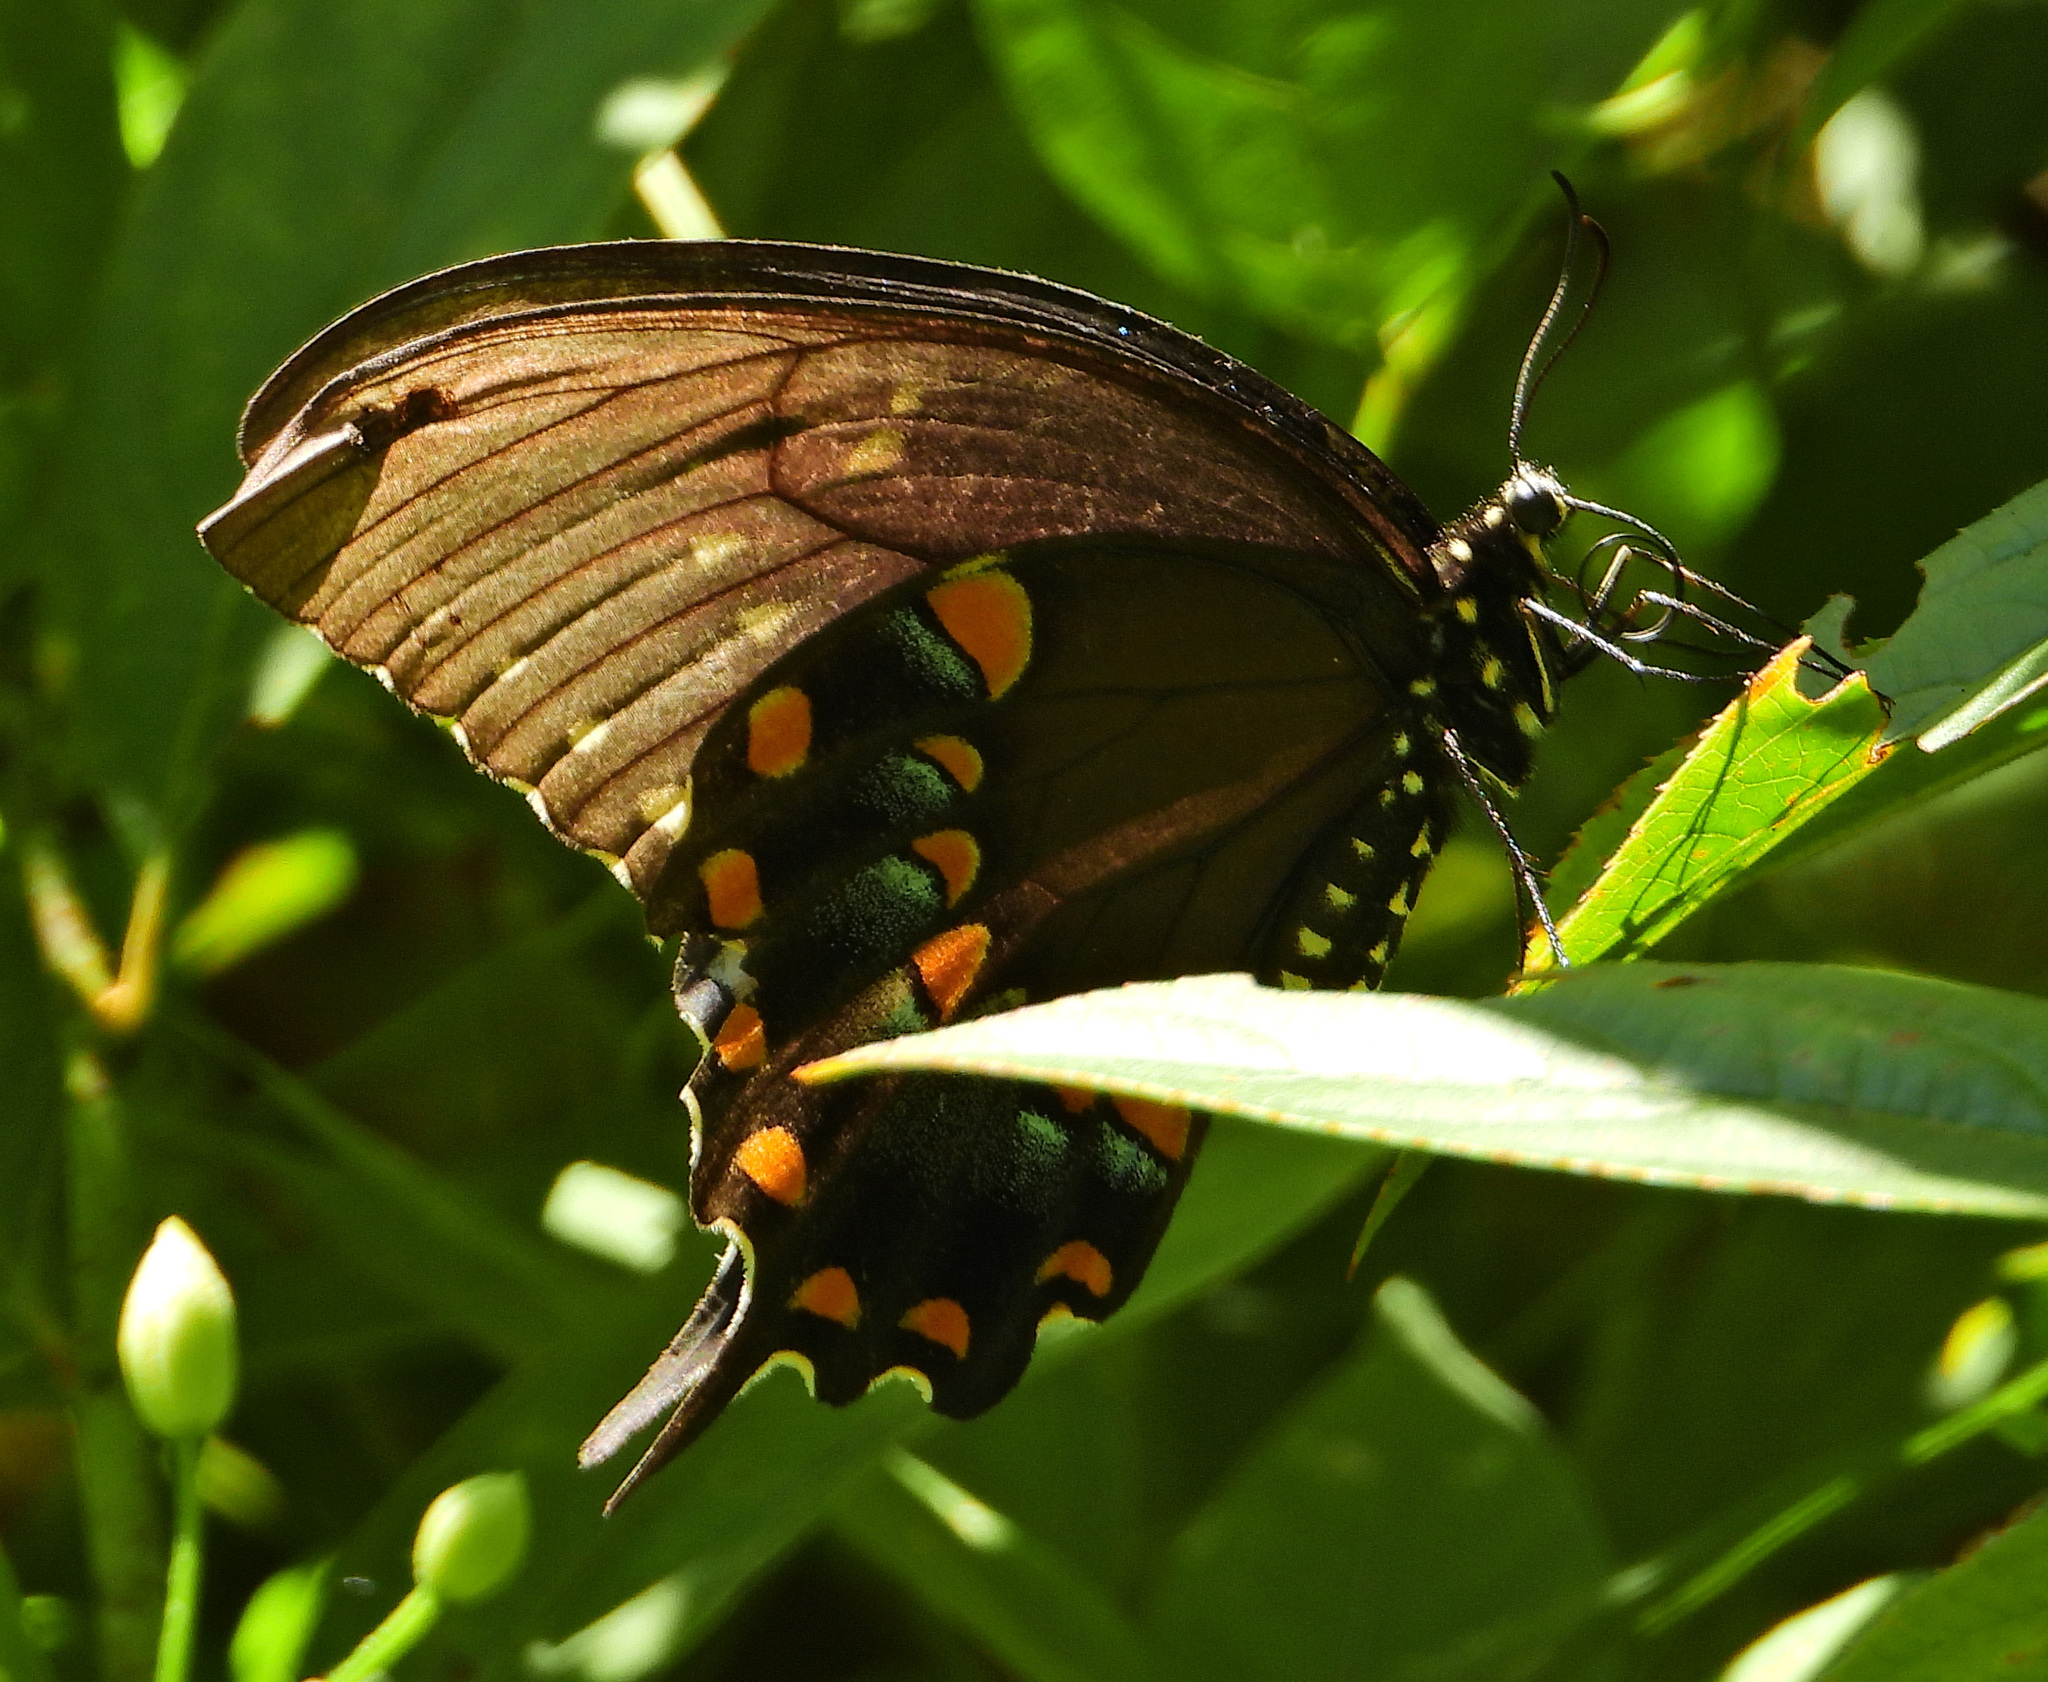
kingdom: Animalia
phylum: Arthropoda
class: Insecta
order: Lepidoptera
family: Papilionidae
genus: Papilio
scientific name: Papilio troilus
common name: Spicebush swallowtail
